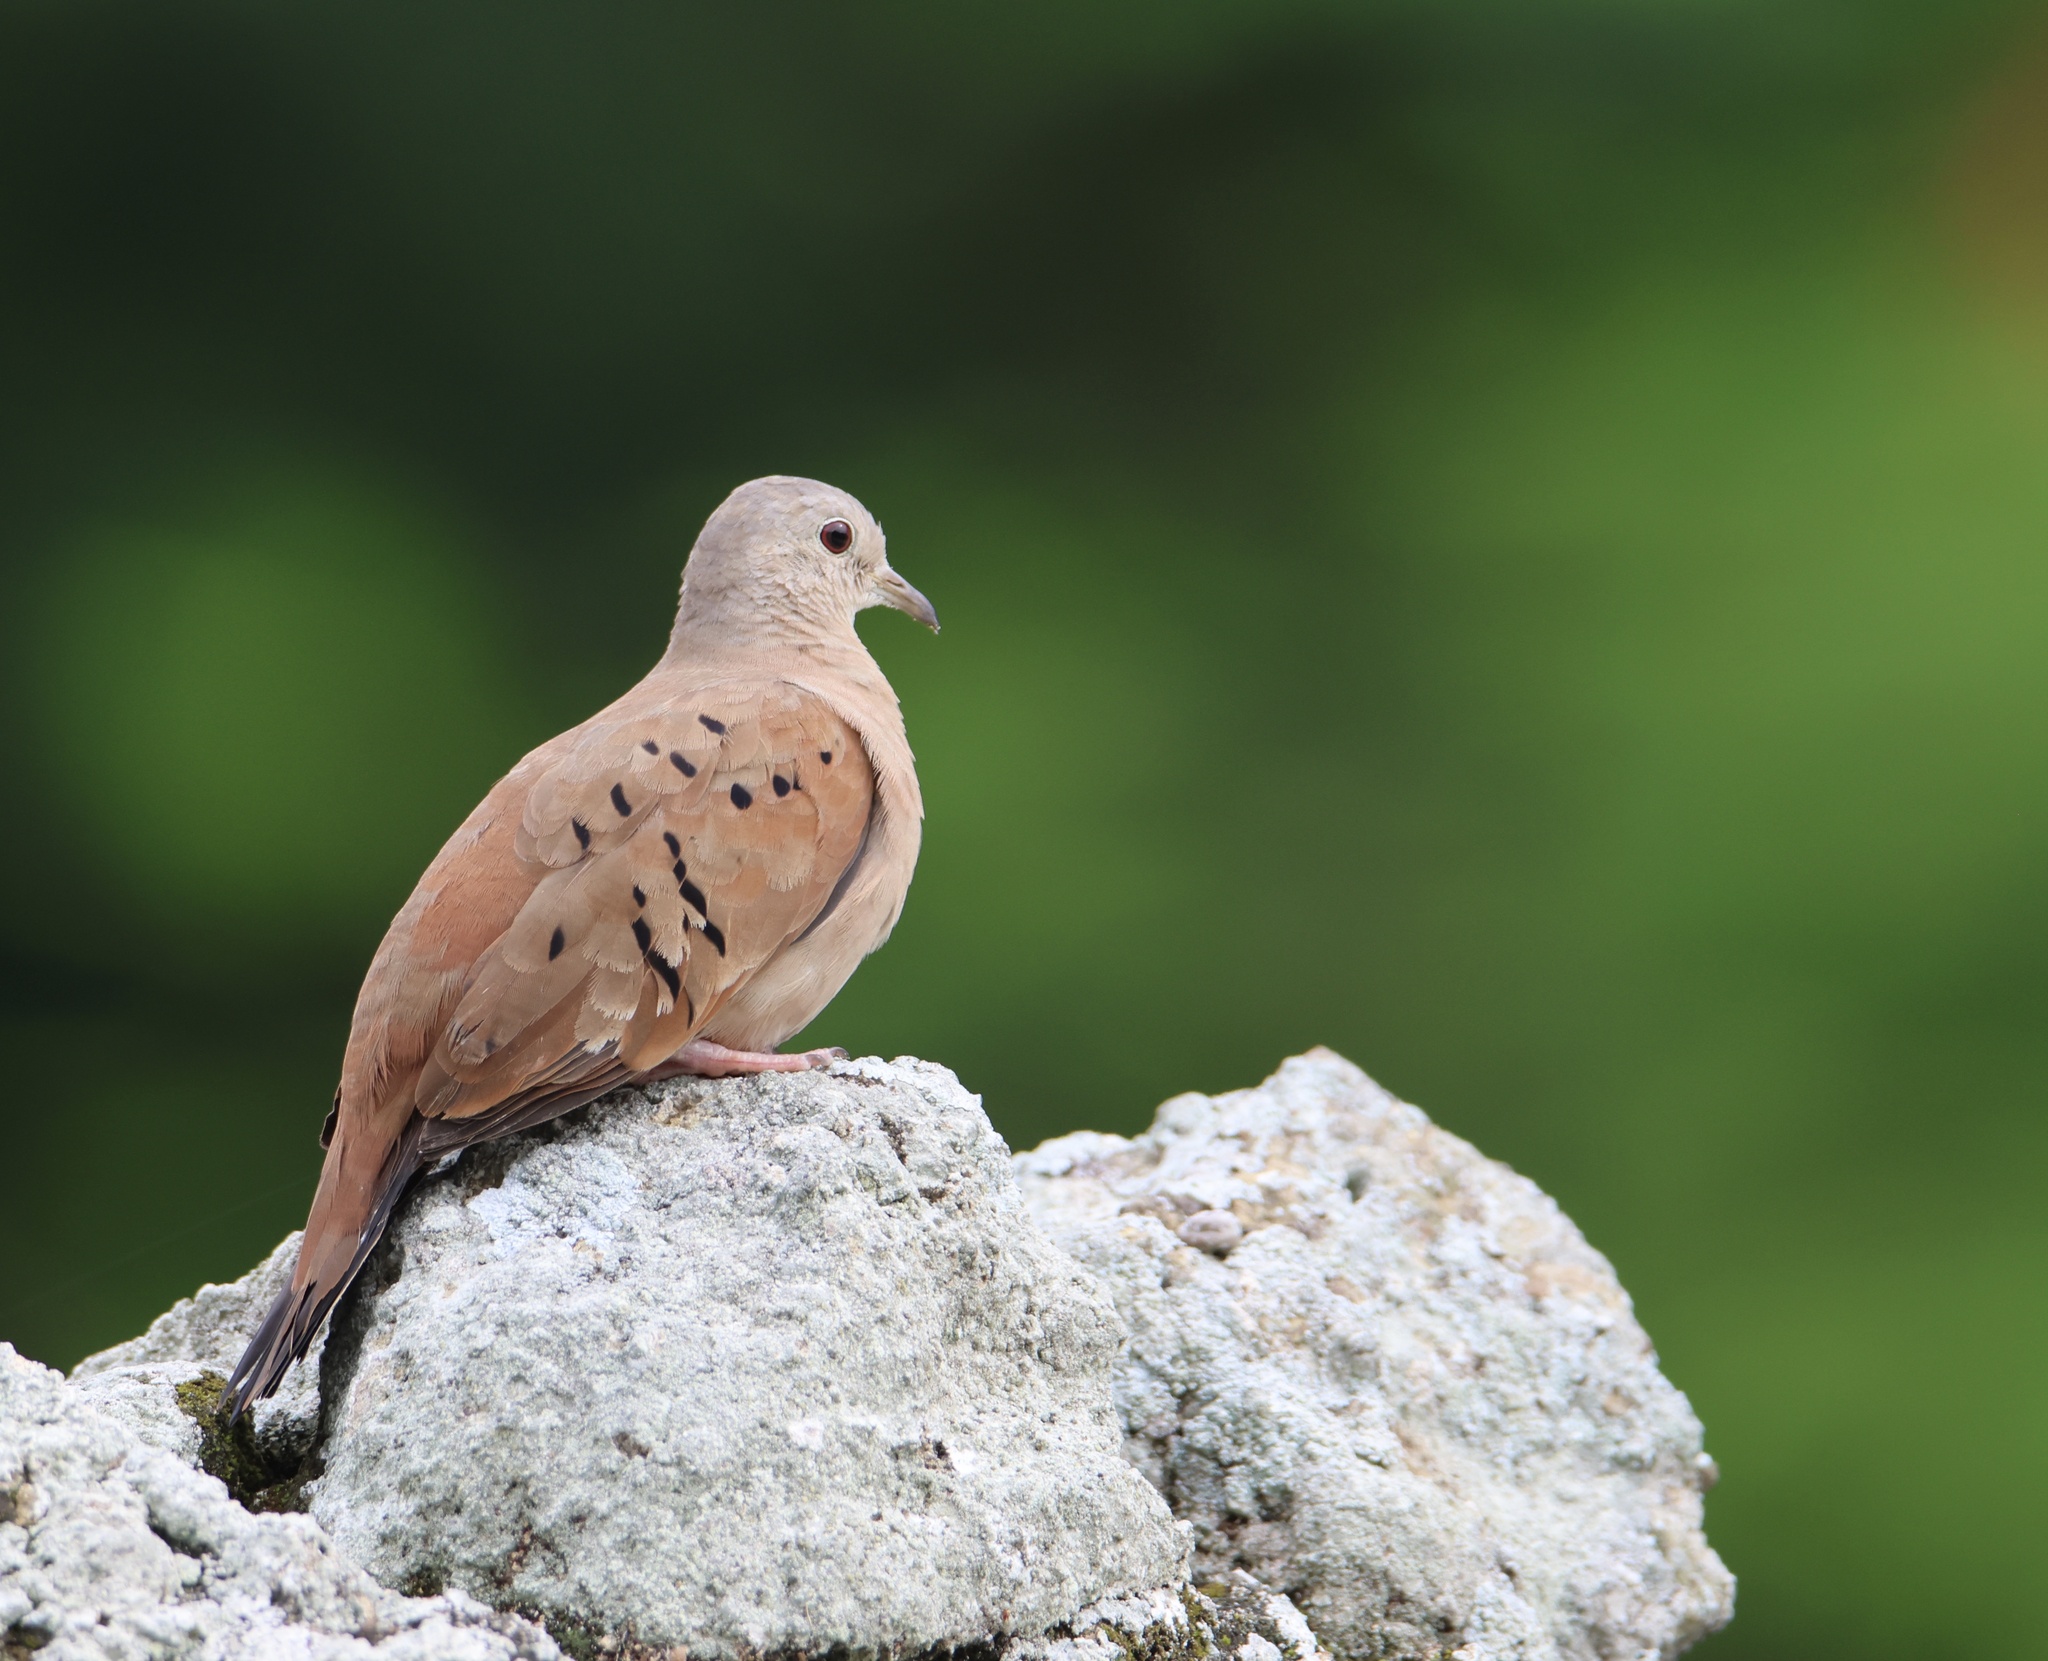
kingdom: Animalia
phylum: Chordata
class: Aves
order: Columbiformes
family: Columbidae
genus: Columbina
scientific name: Columbina talpacoti
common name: Ruddy ground dove
